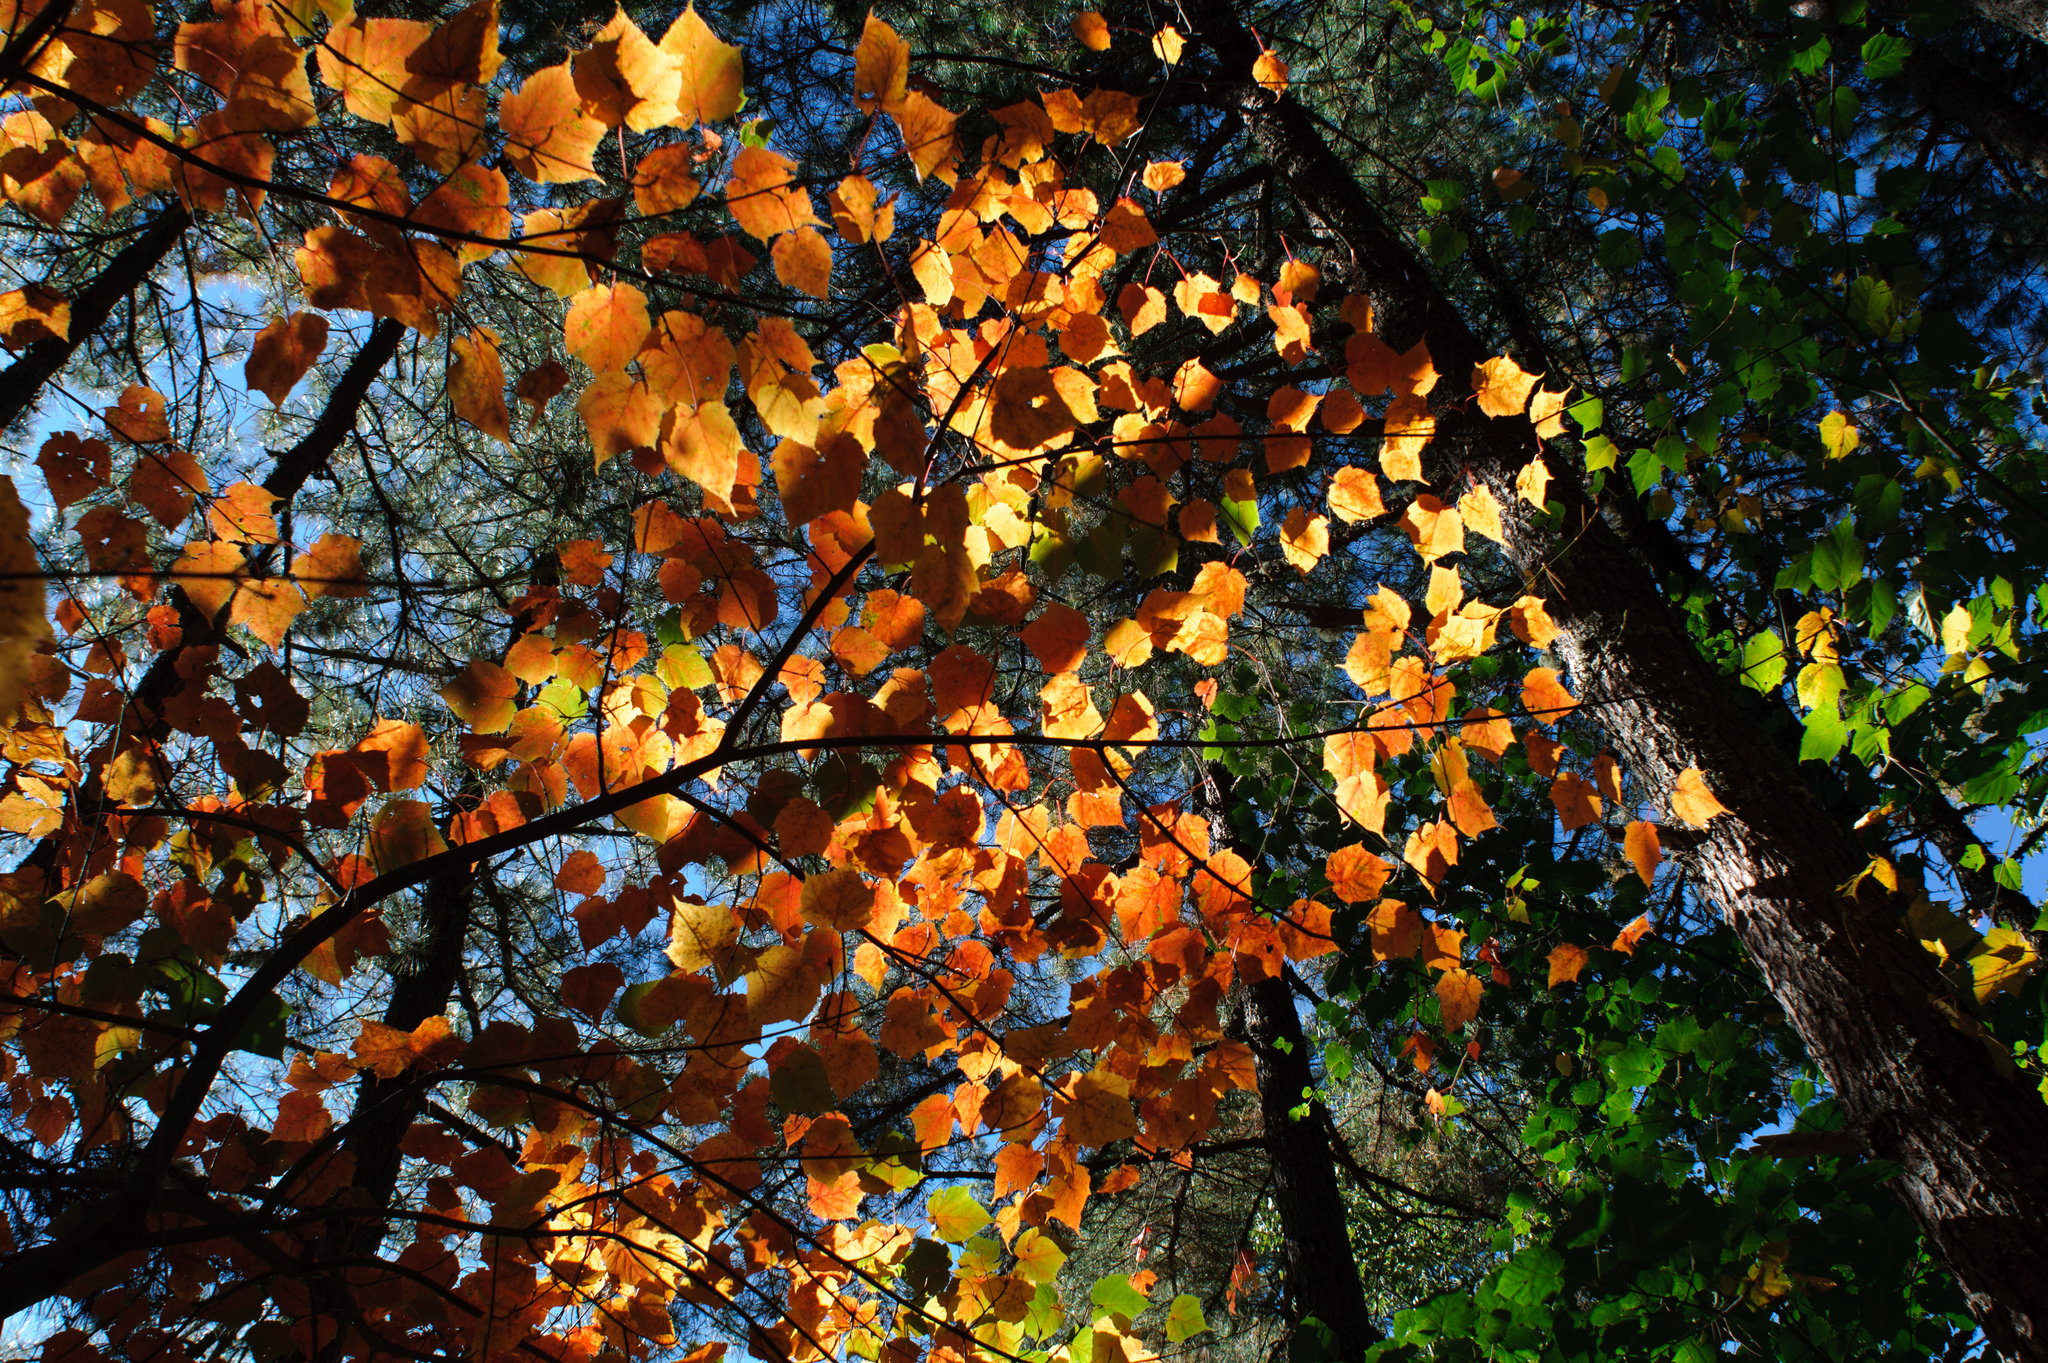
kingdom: Plantae
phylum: Tracheophyta
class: Magnoliopsida
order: Sapindales
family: Sapindaceae
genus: Acer
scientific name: Acer caudatifolium
